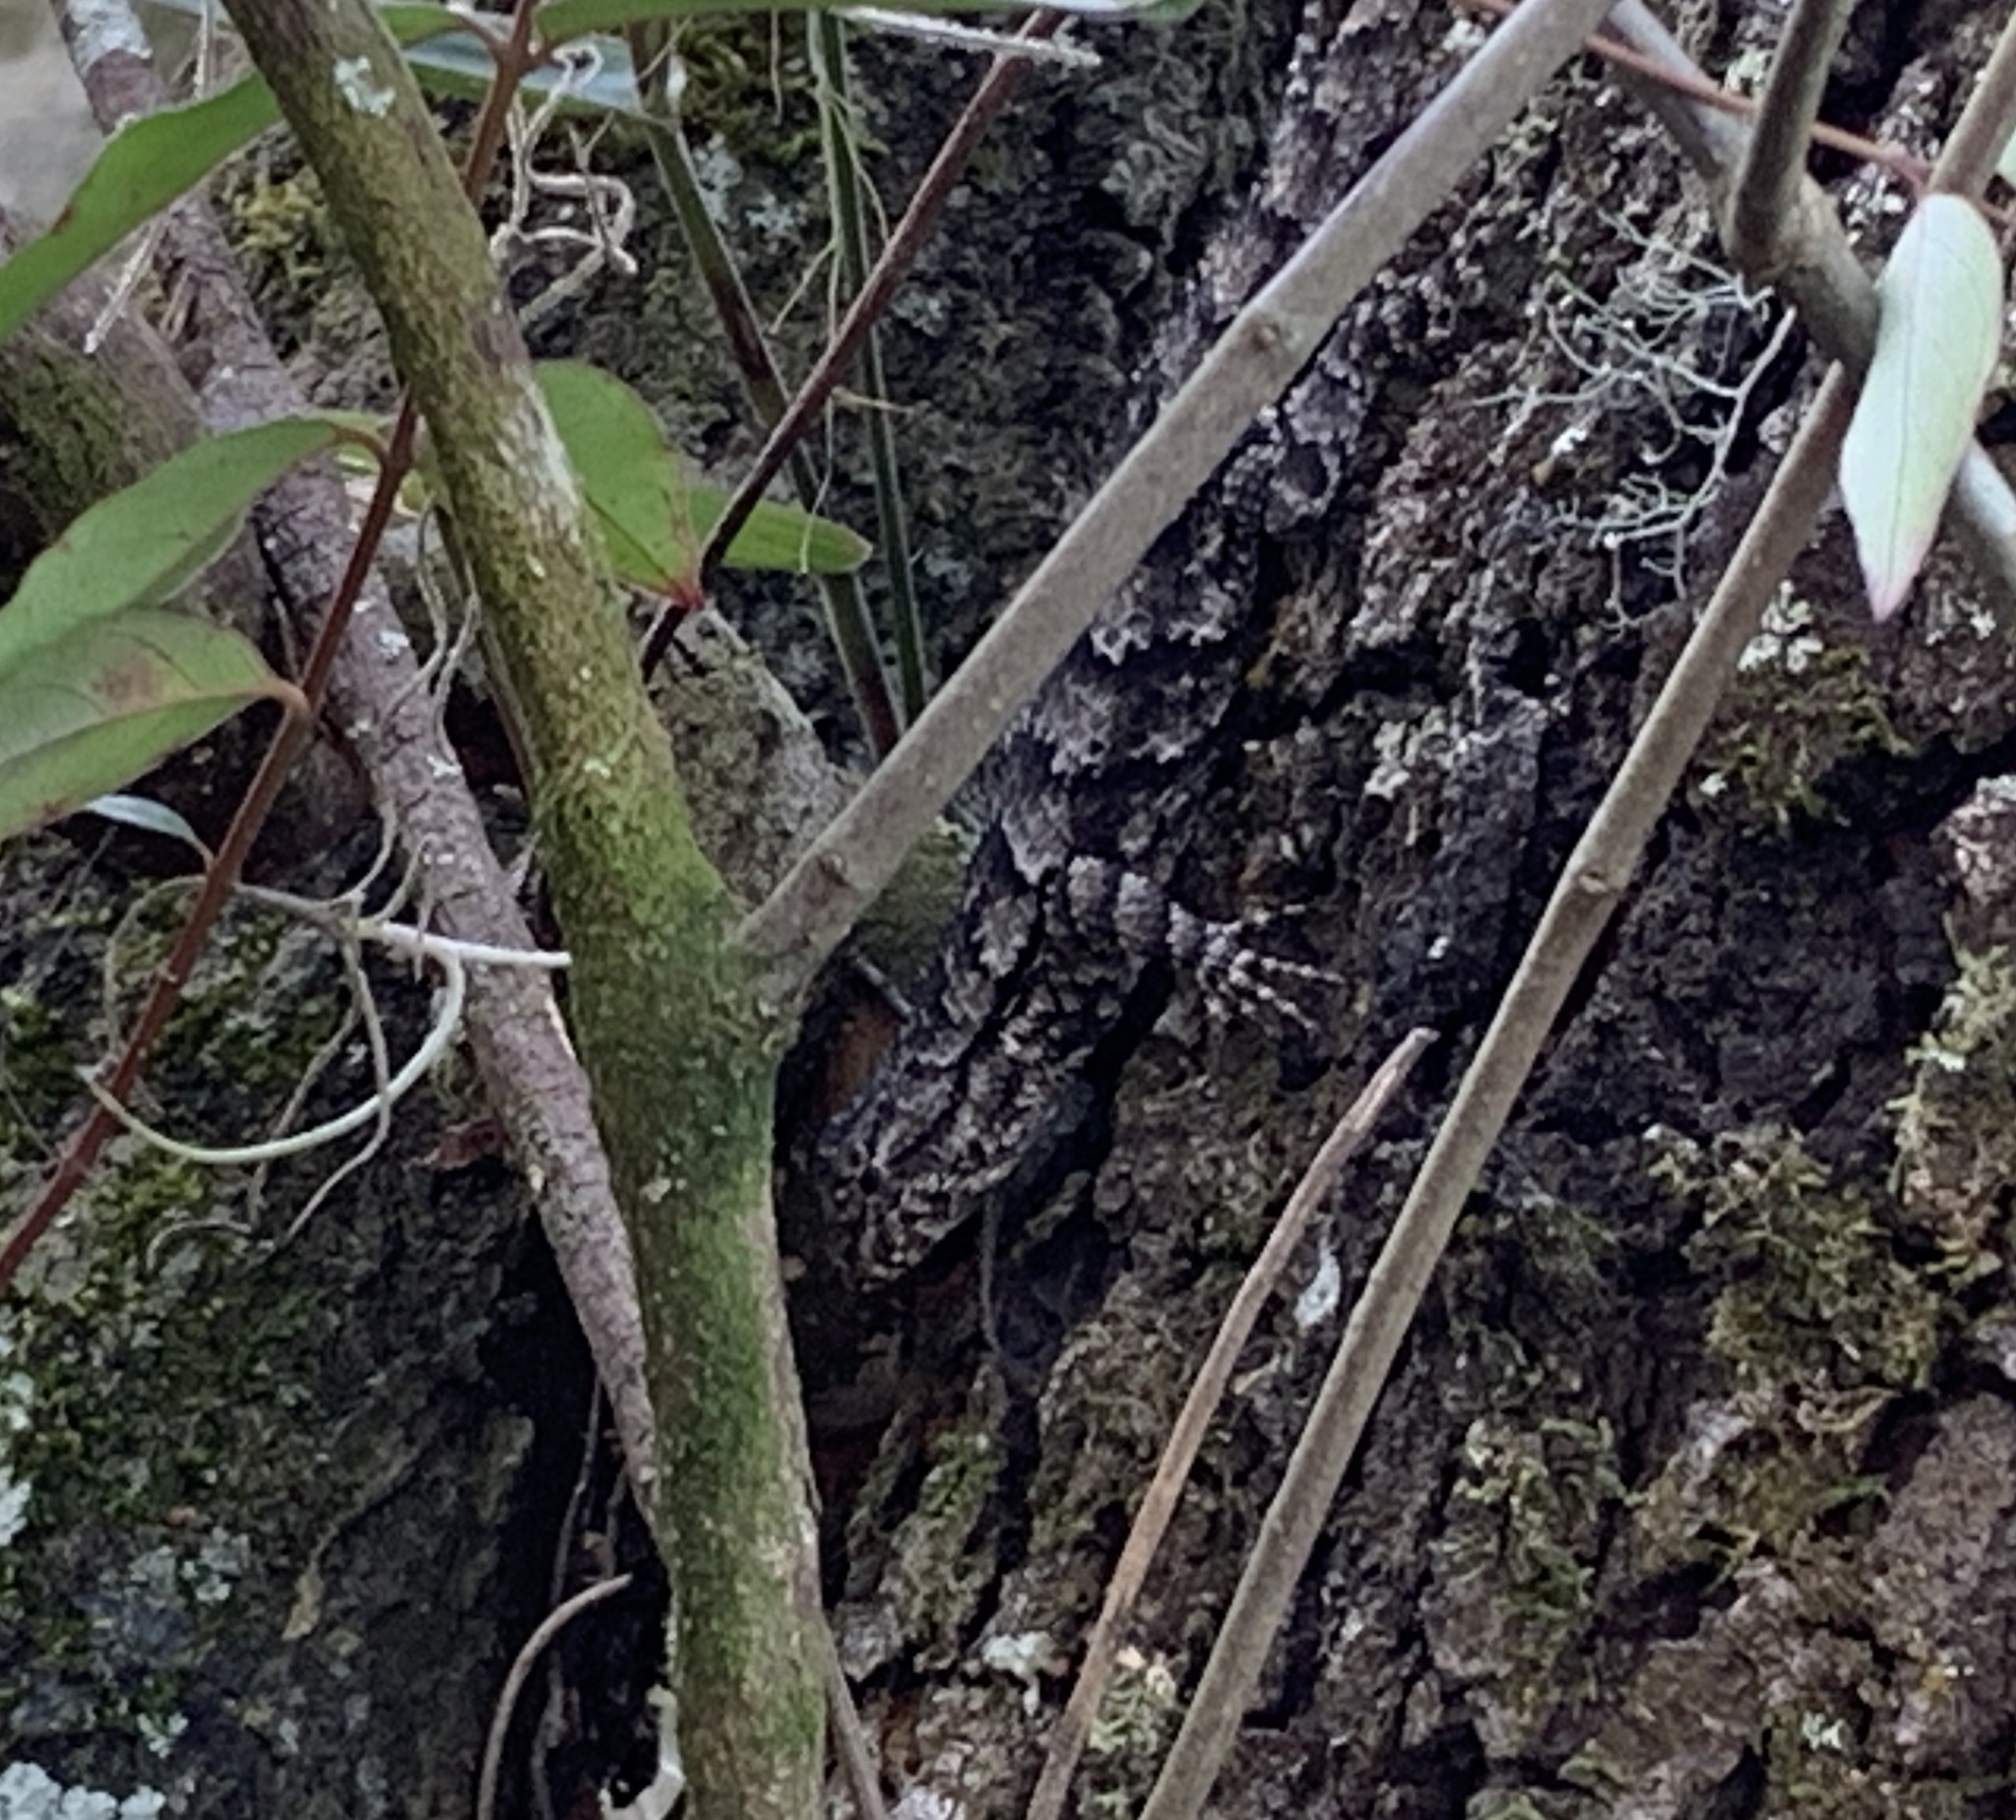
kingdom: Animalia
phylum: Chordata
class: Squamata
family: Phrynosomatidae
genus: Sceloporus
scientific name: Sceloporus undulatus
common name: Eastern fence lizard
